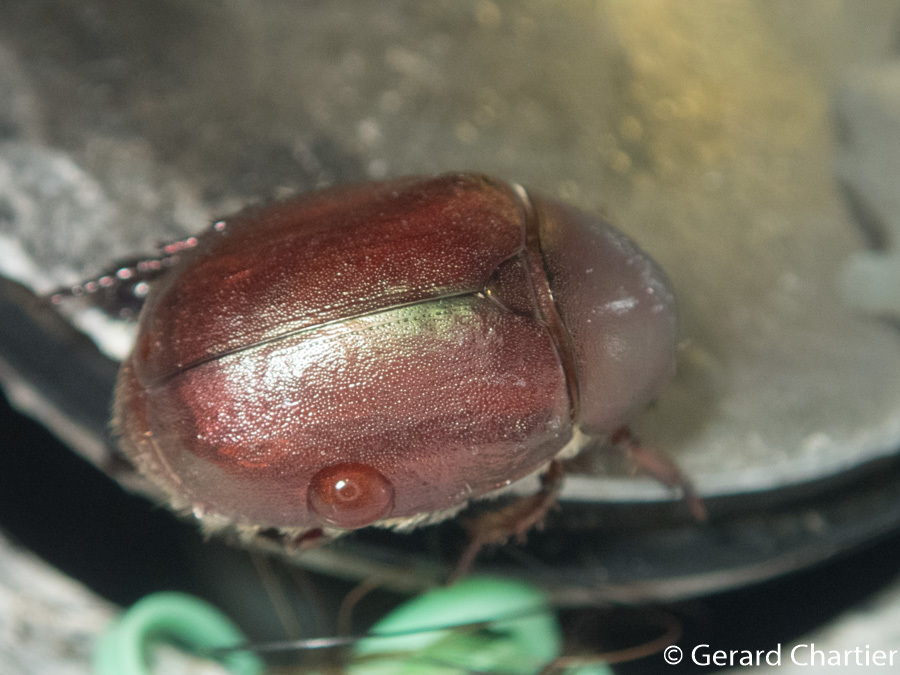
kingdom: Animalia
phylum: Arthropoda
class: Insecta
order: Coleoptera
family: Scarabaeidae
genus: Anomala
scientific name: Anomala densa
